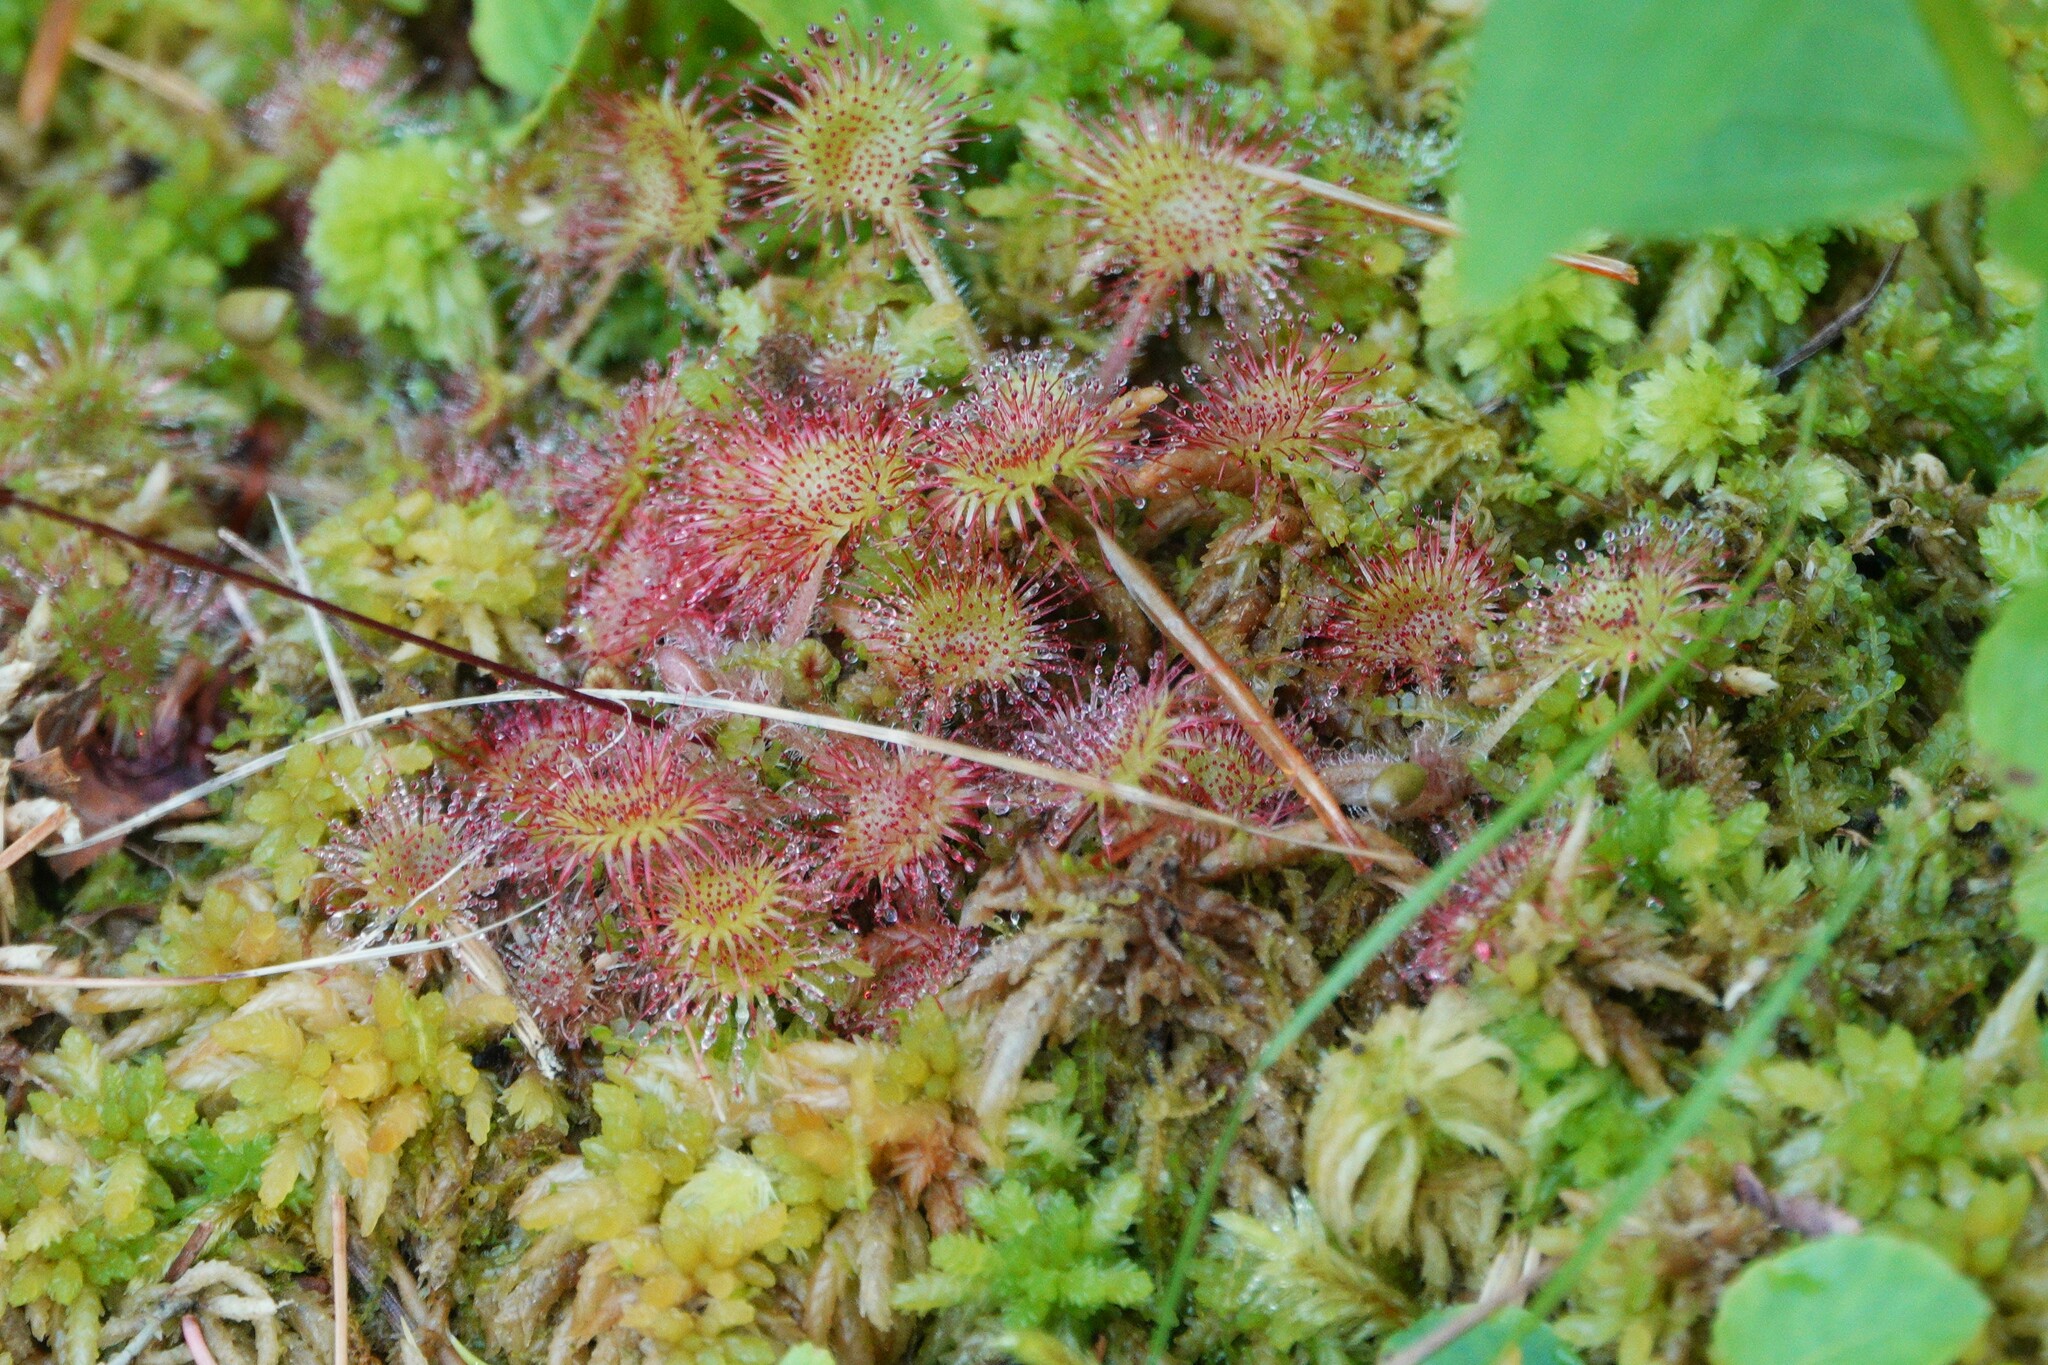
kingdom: Plantae
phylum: Tracheophyta
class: Magnoliopsida
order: Caryophyllales
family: Droseraceae
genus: Drosera
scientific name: Drosera rotundifolia
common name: Round-leaved sundew
